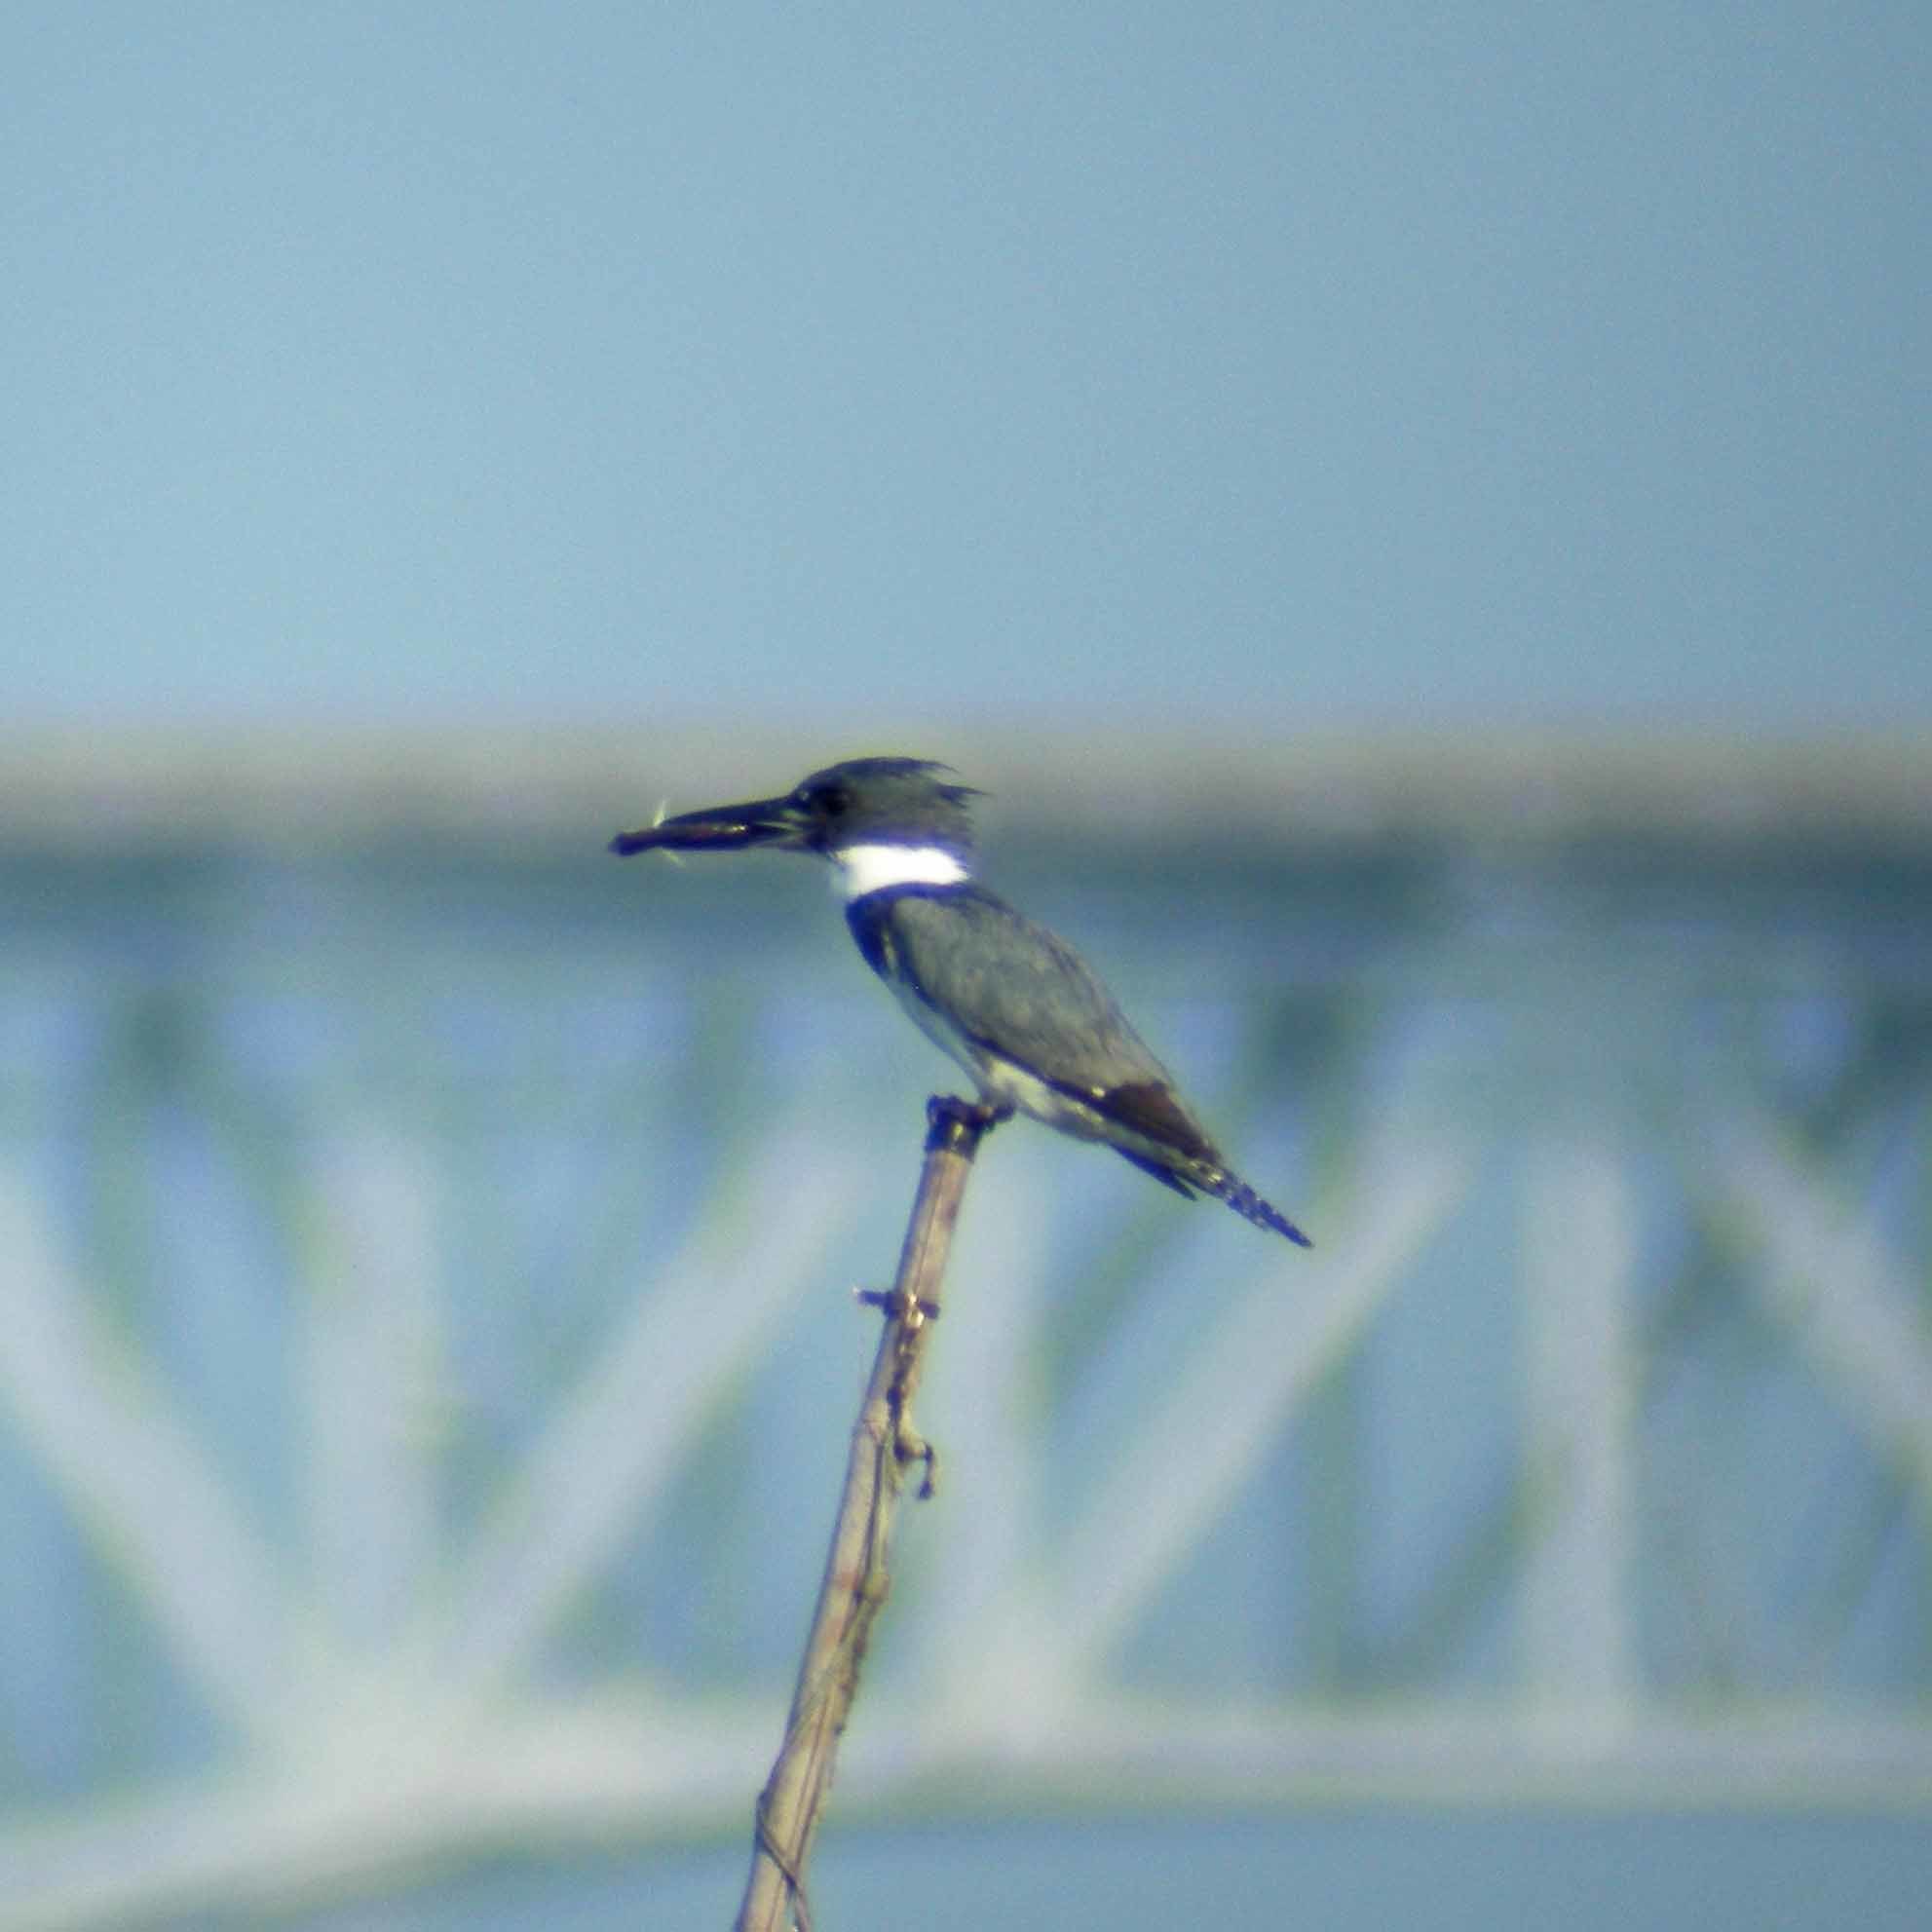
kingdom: Animalia
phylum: Chordata
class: Aves
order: Coraciiformes
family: Alcedinidae
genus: Megaceryle
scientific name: Megaceryle alcyon
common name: Belted kingfisher
